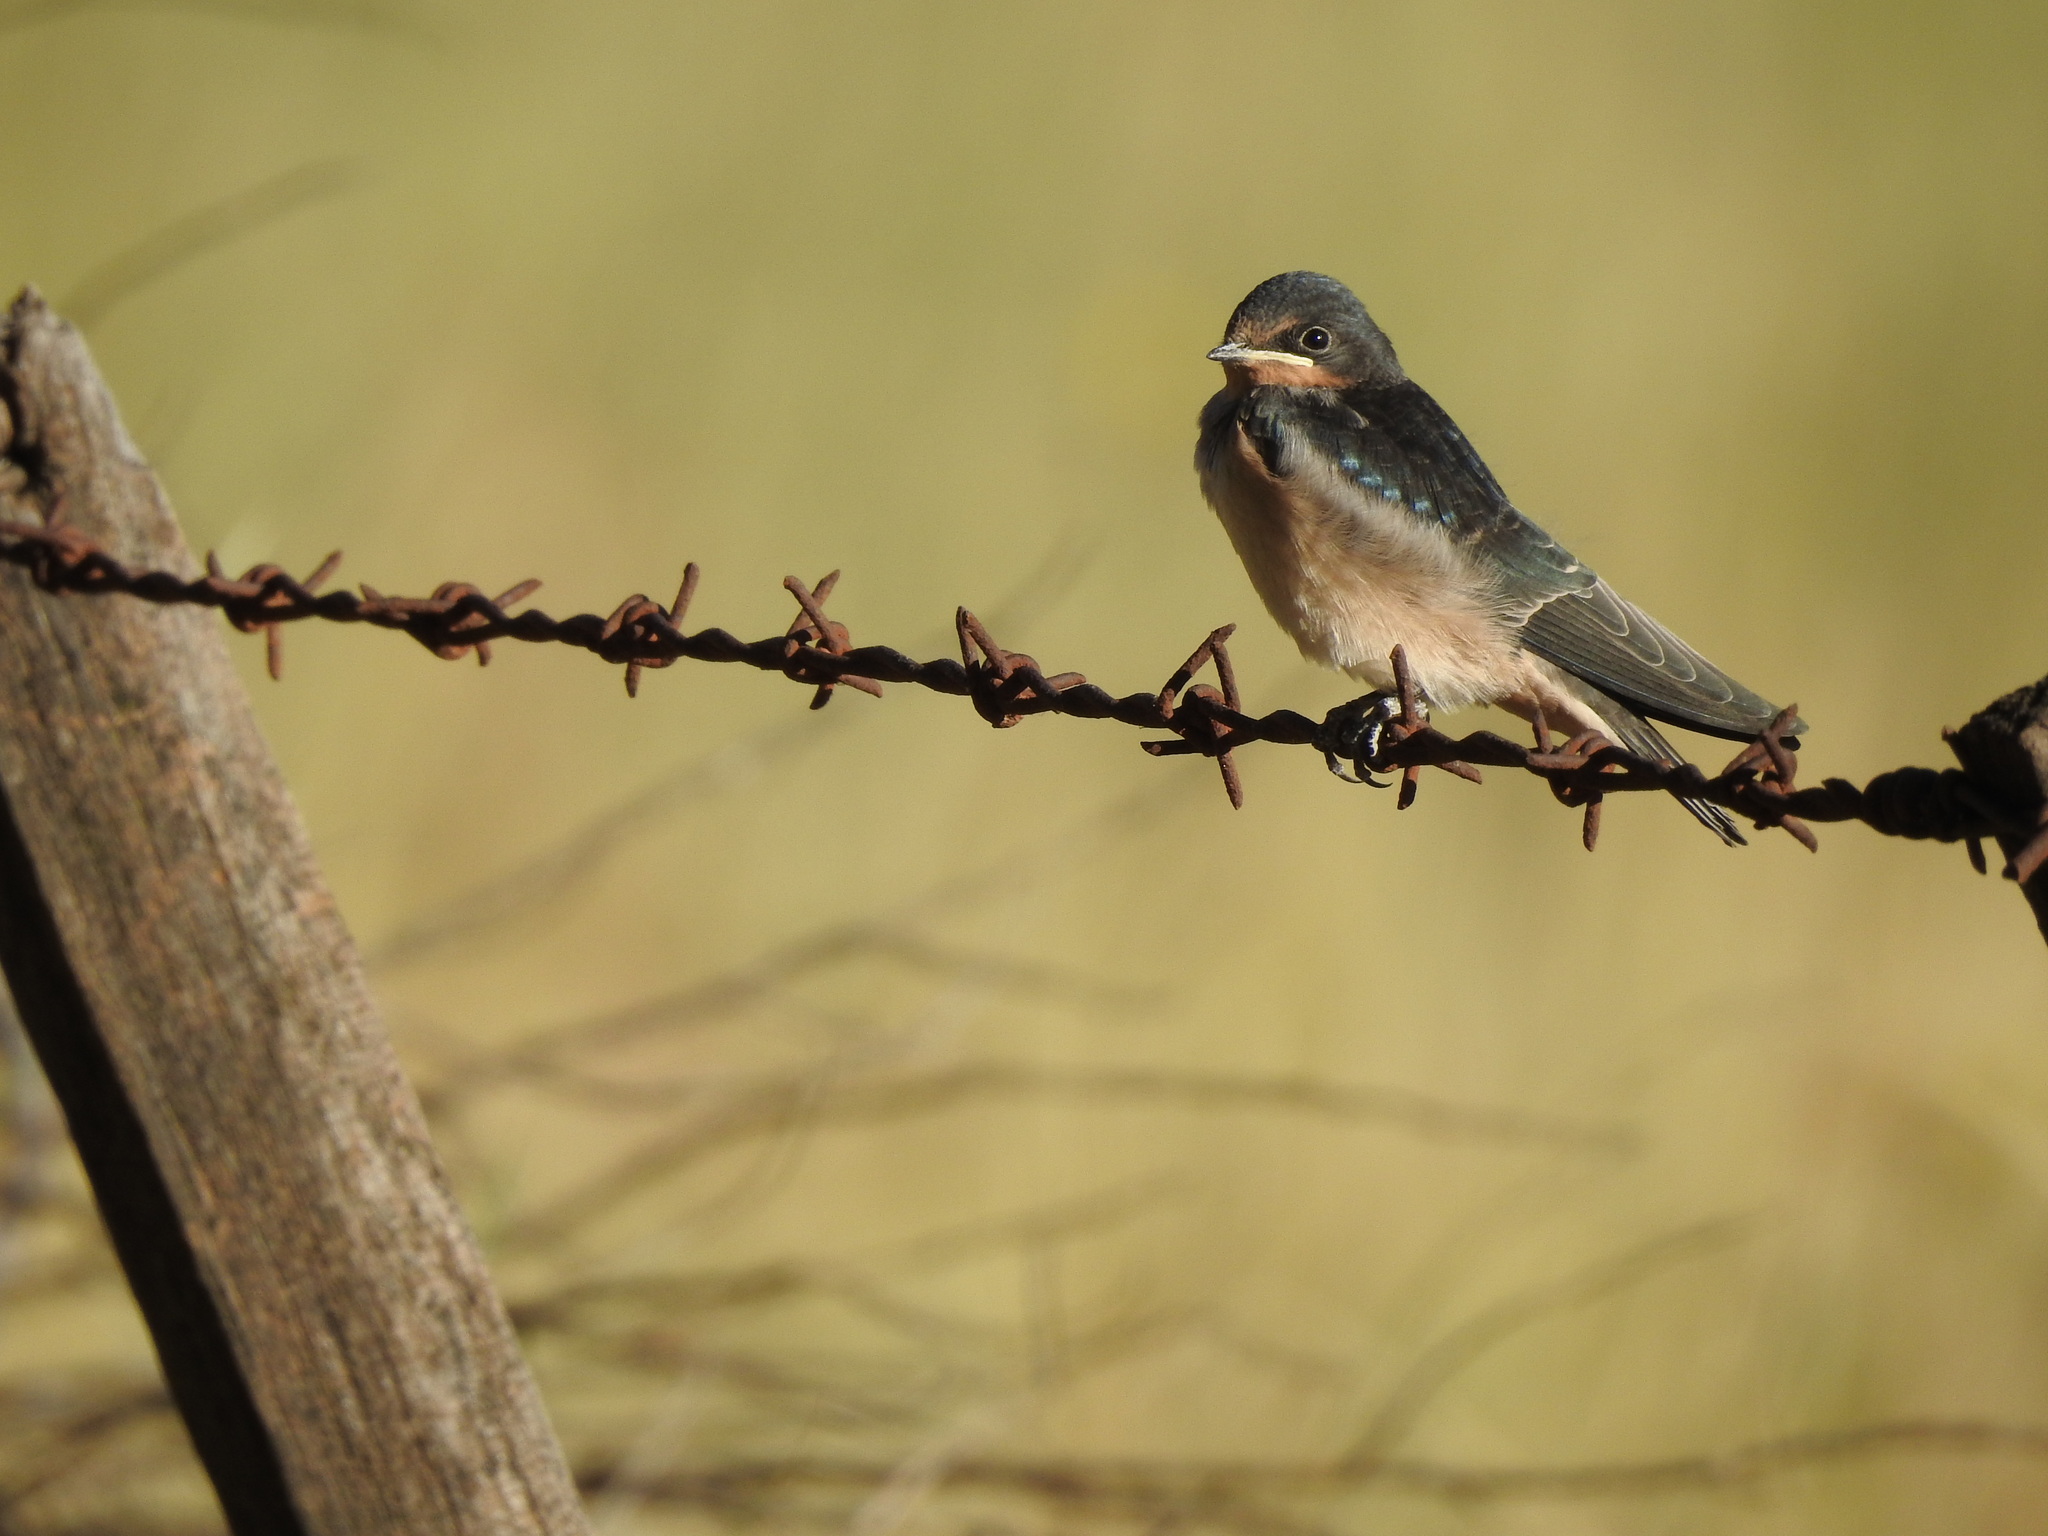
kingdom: Animalia
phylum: Chordata
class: Aves
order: Passeriformes
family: Hirundinidae
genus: Hirundo
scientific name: Hirundo rustica
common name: Barn swallow
